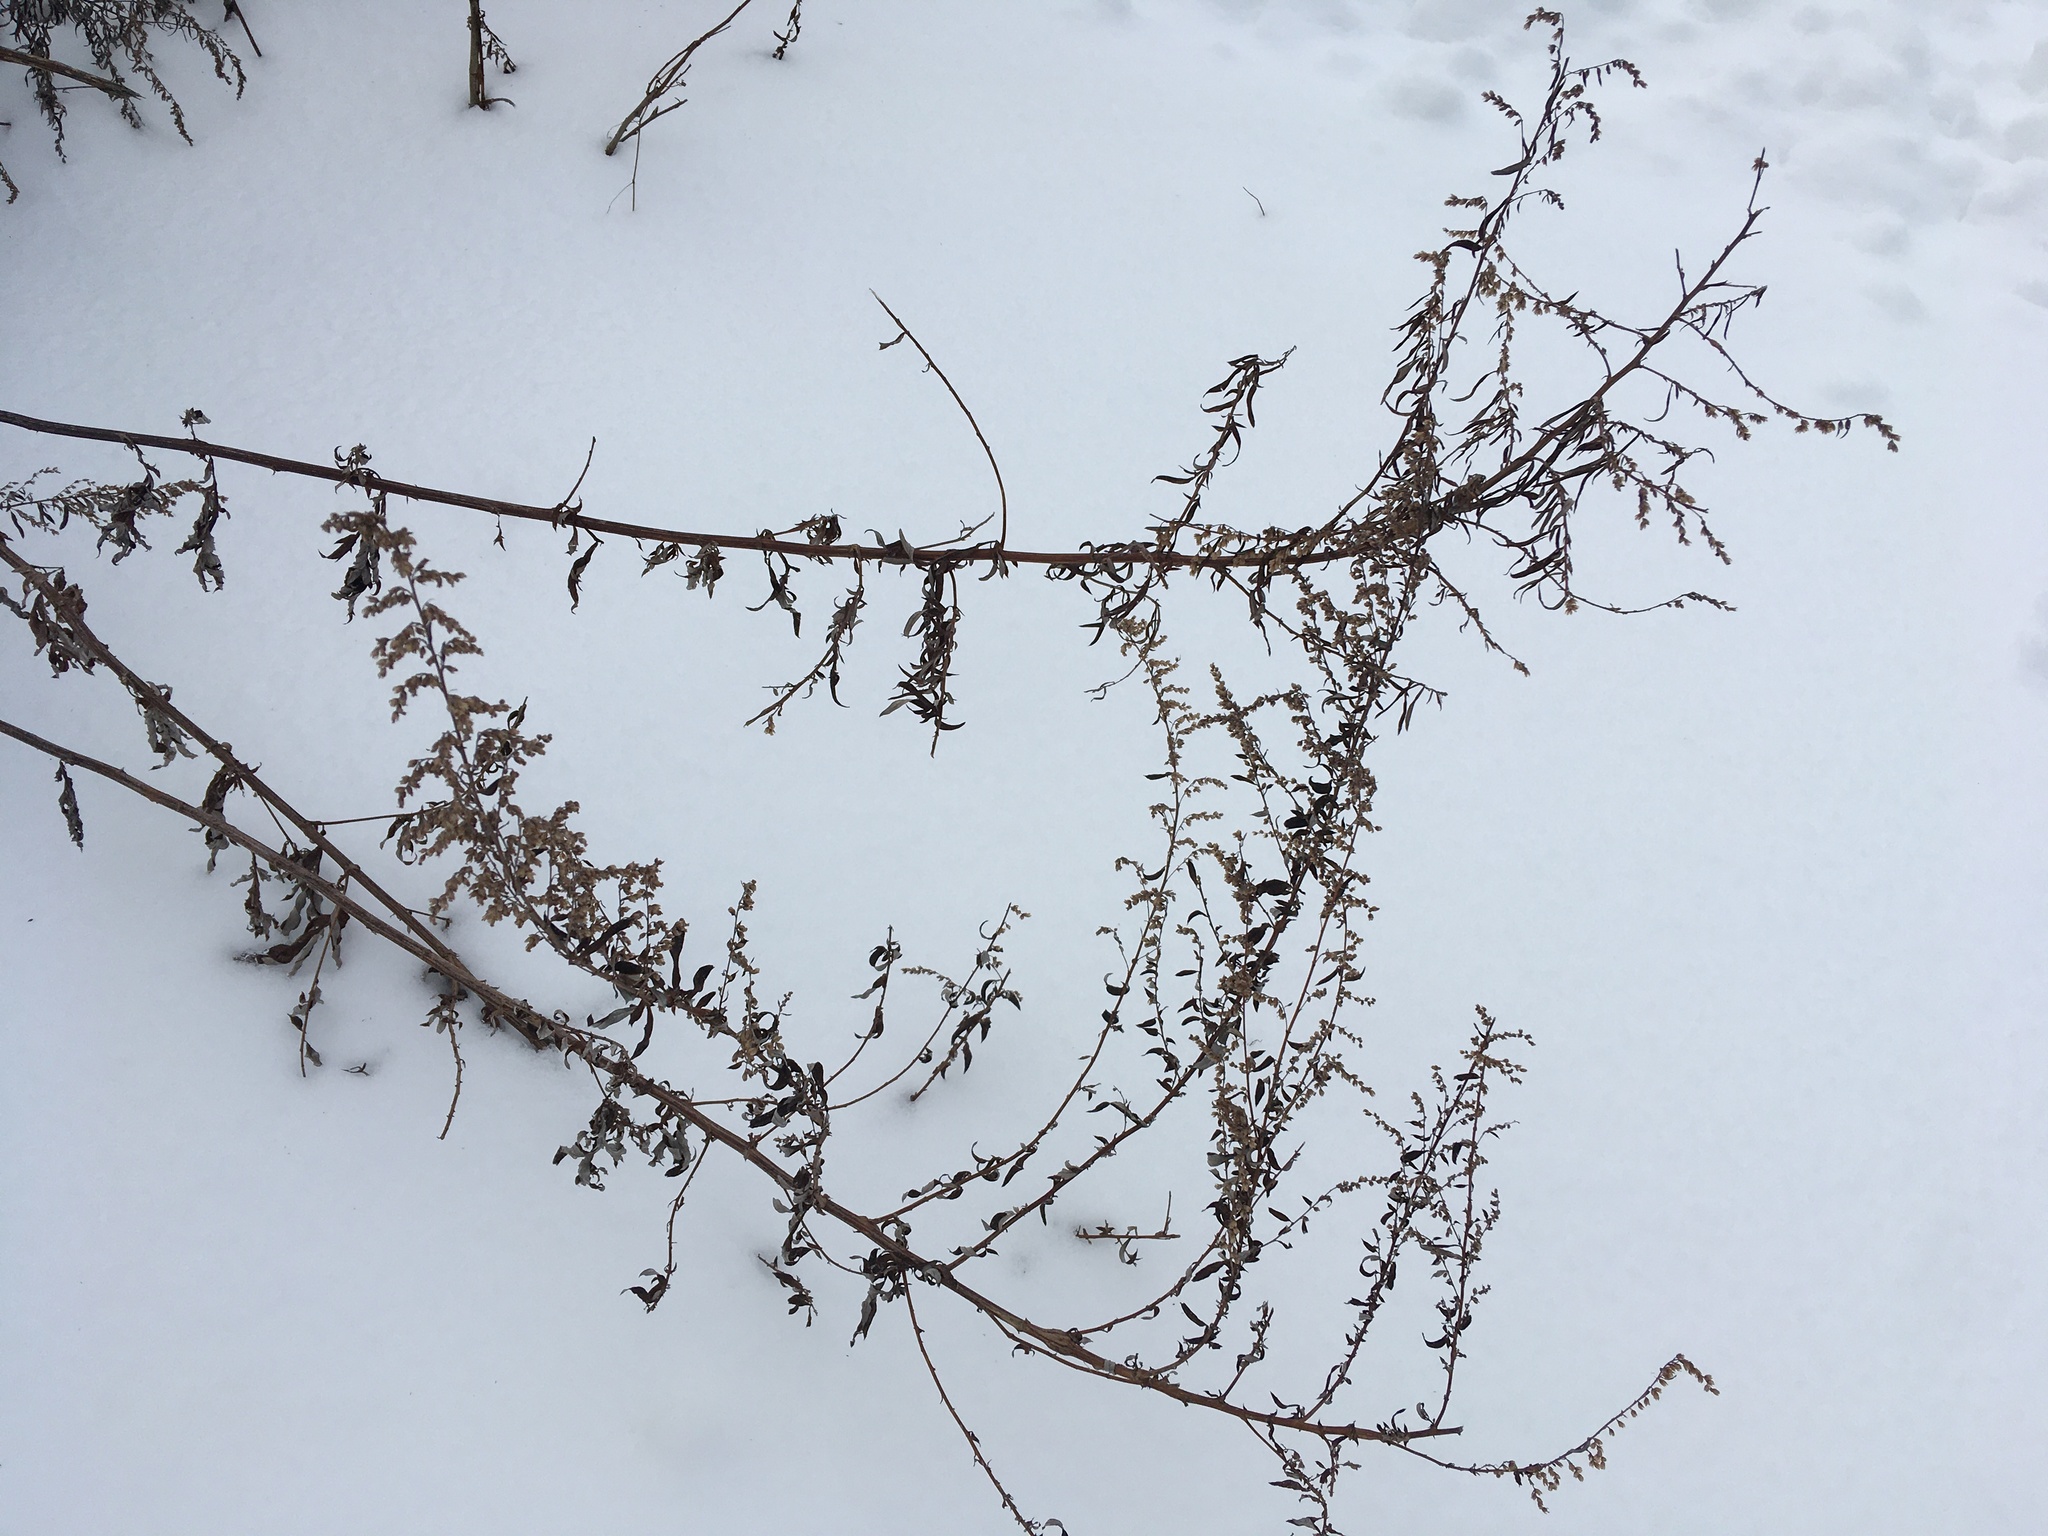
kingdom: Plantae
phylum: Tracheophyta
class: Magnoliopsida
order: Asterales
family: Asteraceae
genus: Artemisia
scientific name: Artemisia vulgaris
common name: Mugwort
